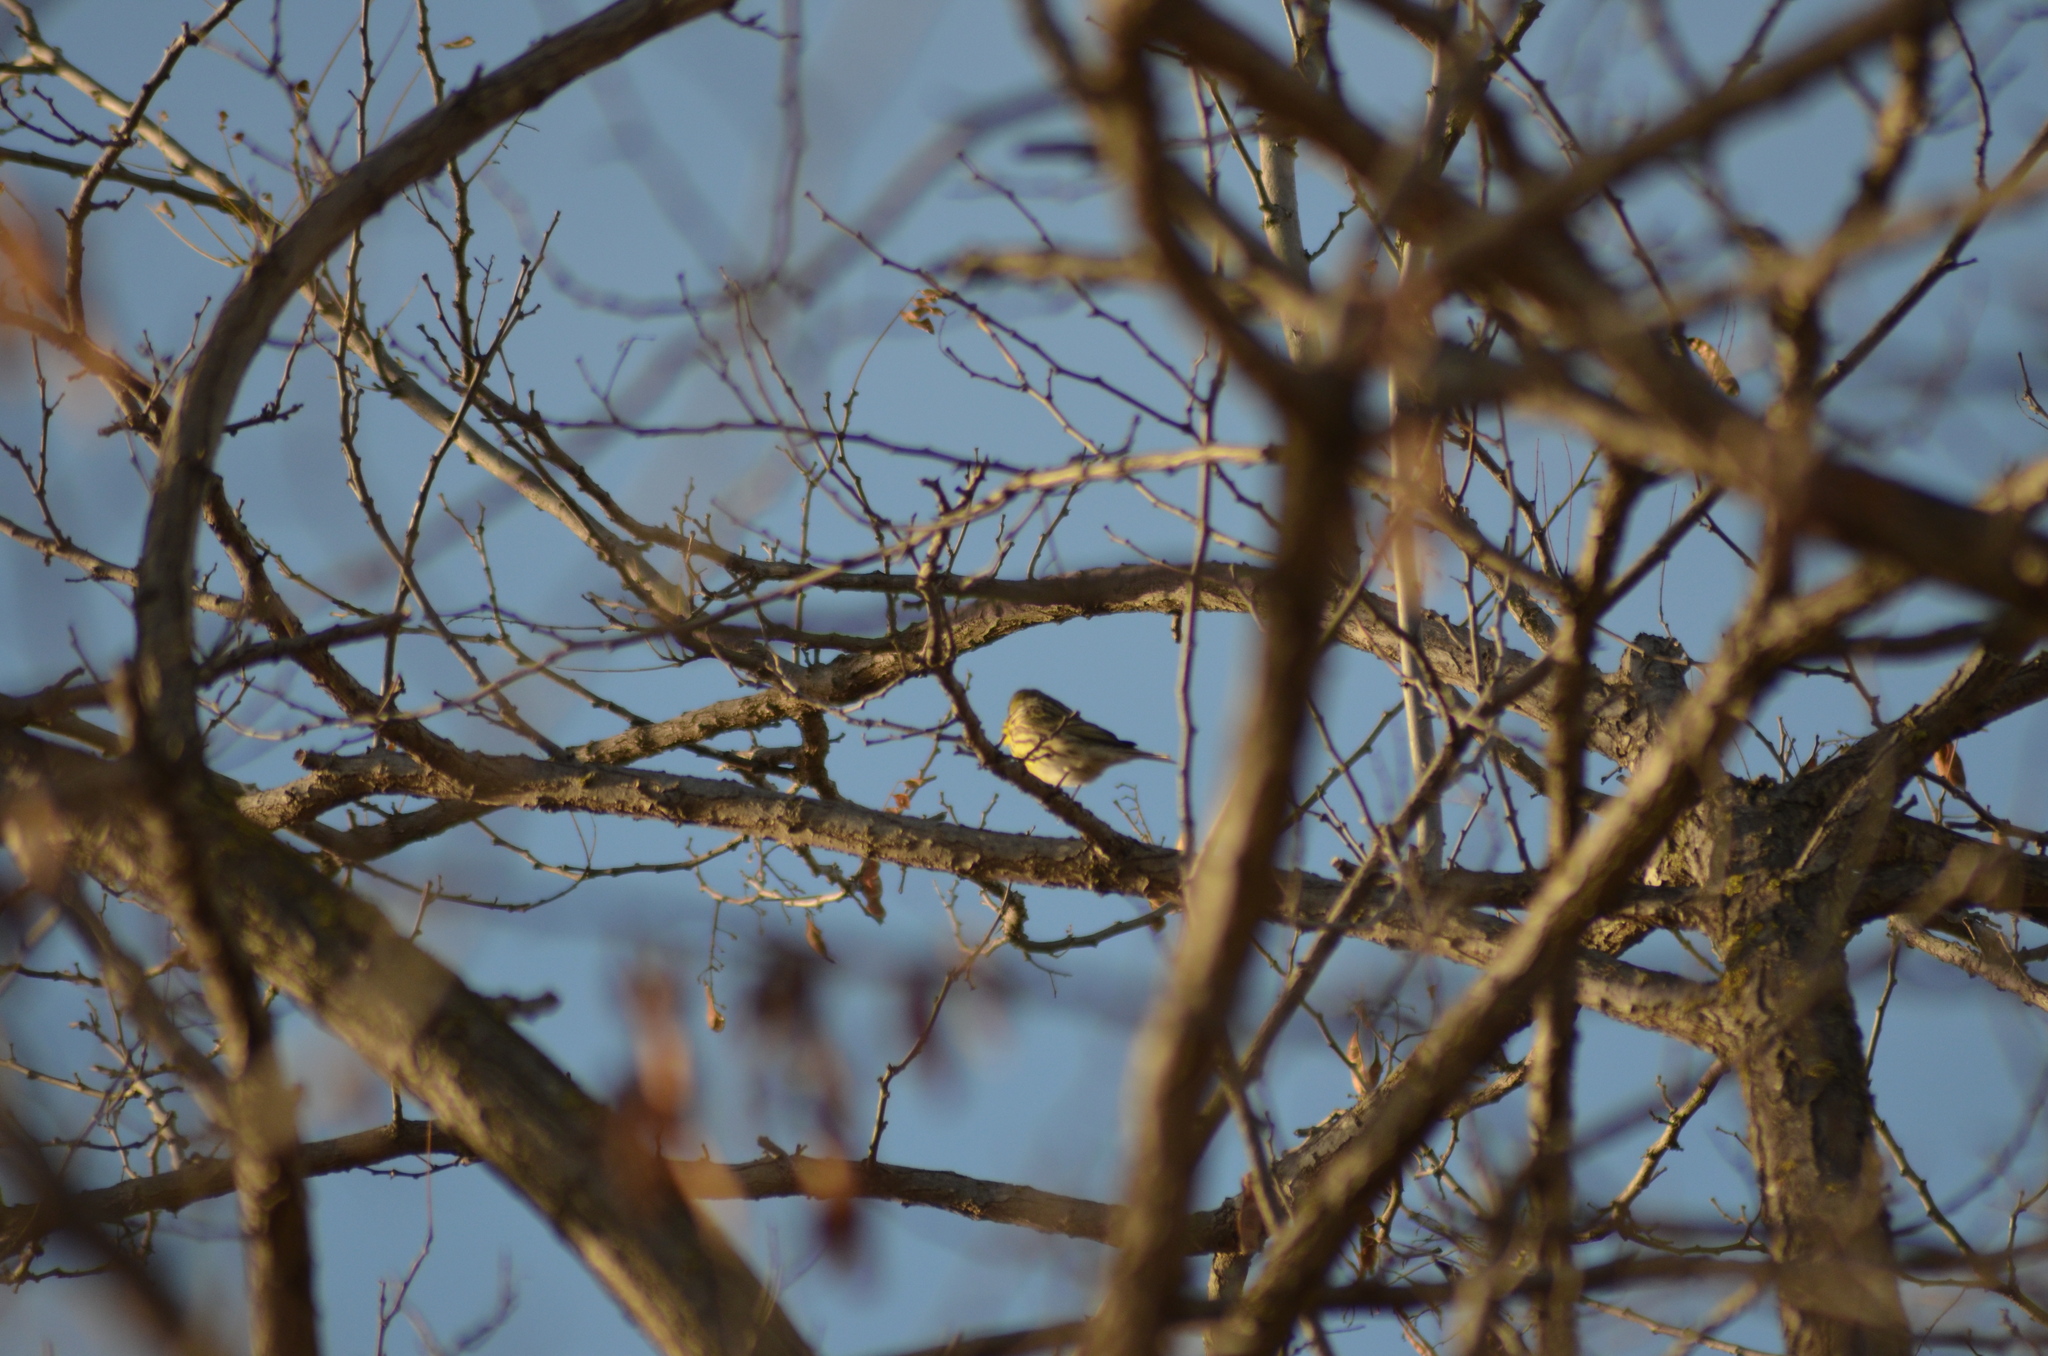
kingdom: Animalia
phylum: Chordata
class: Aves
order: Passeriformes
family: Fringillidae
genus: Serinus
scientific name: Serinus serinus
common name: European serin
